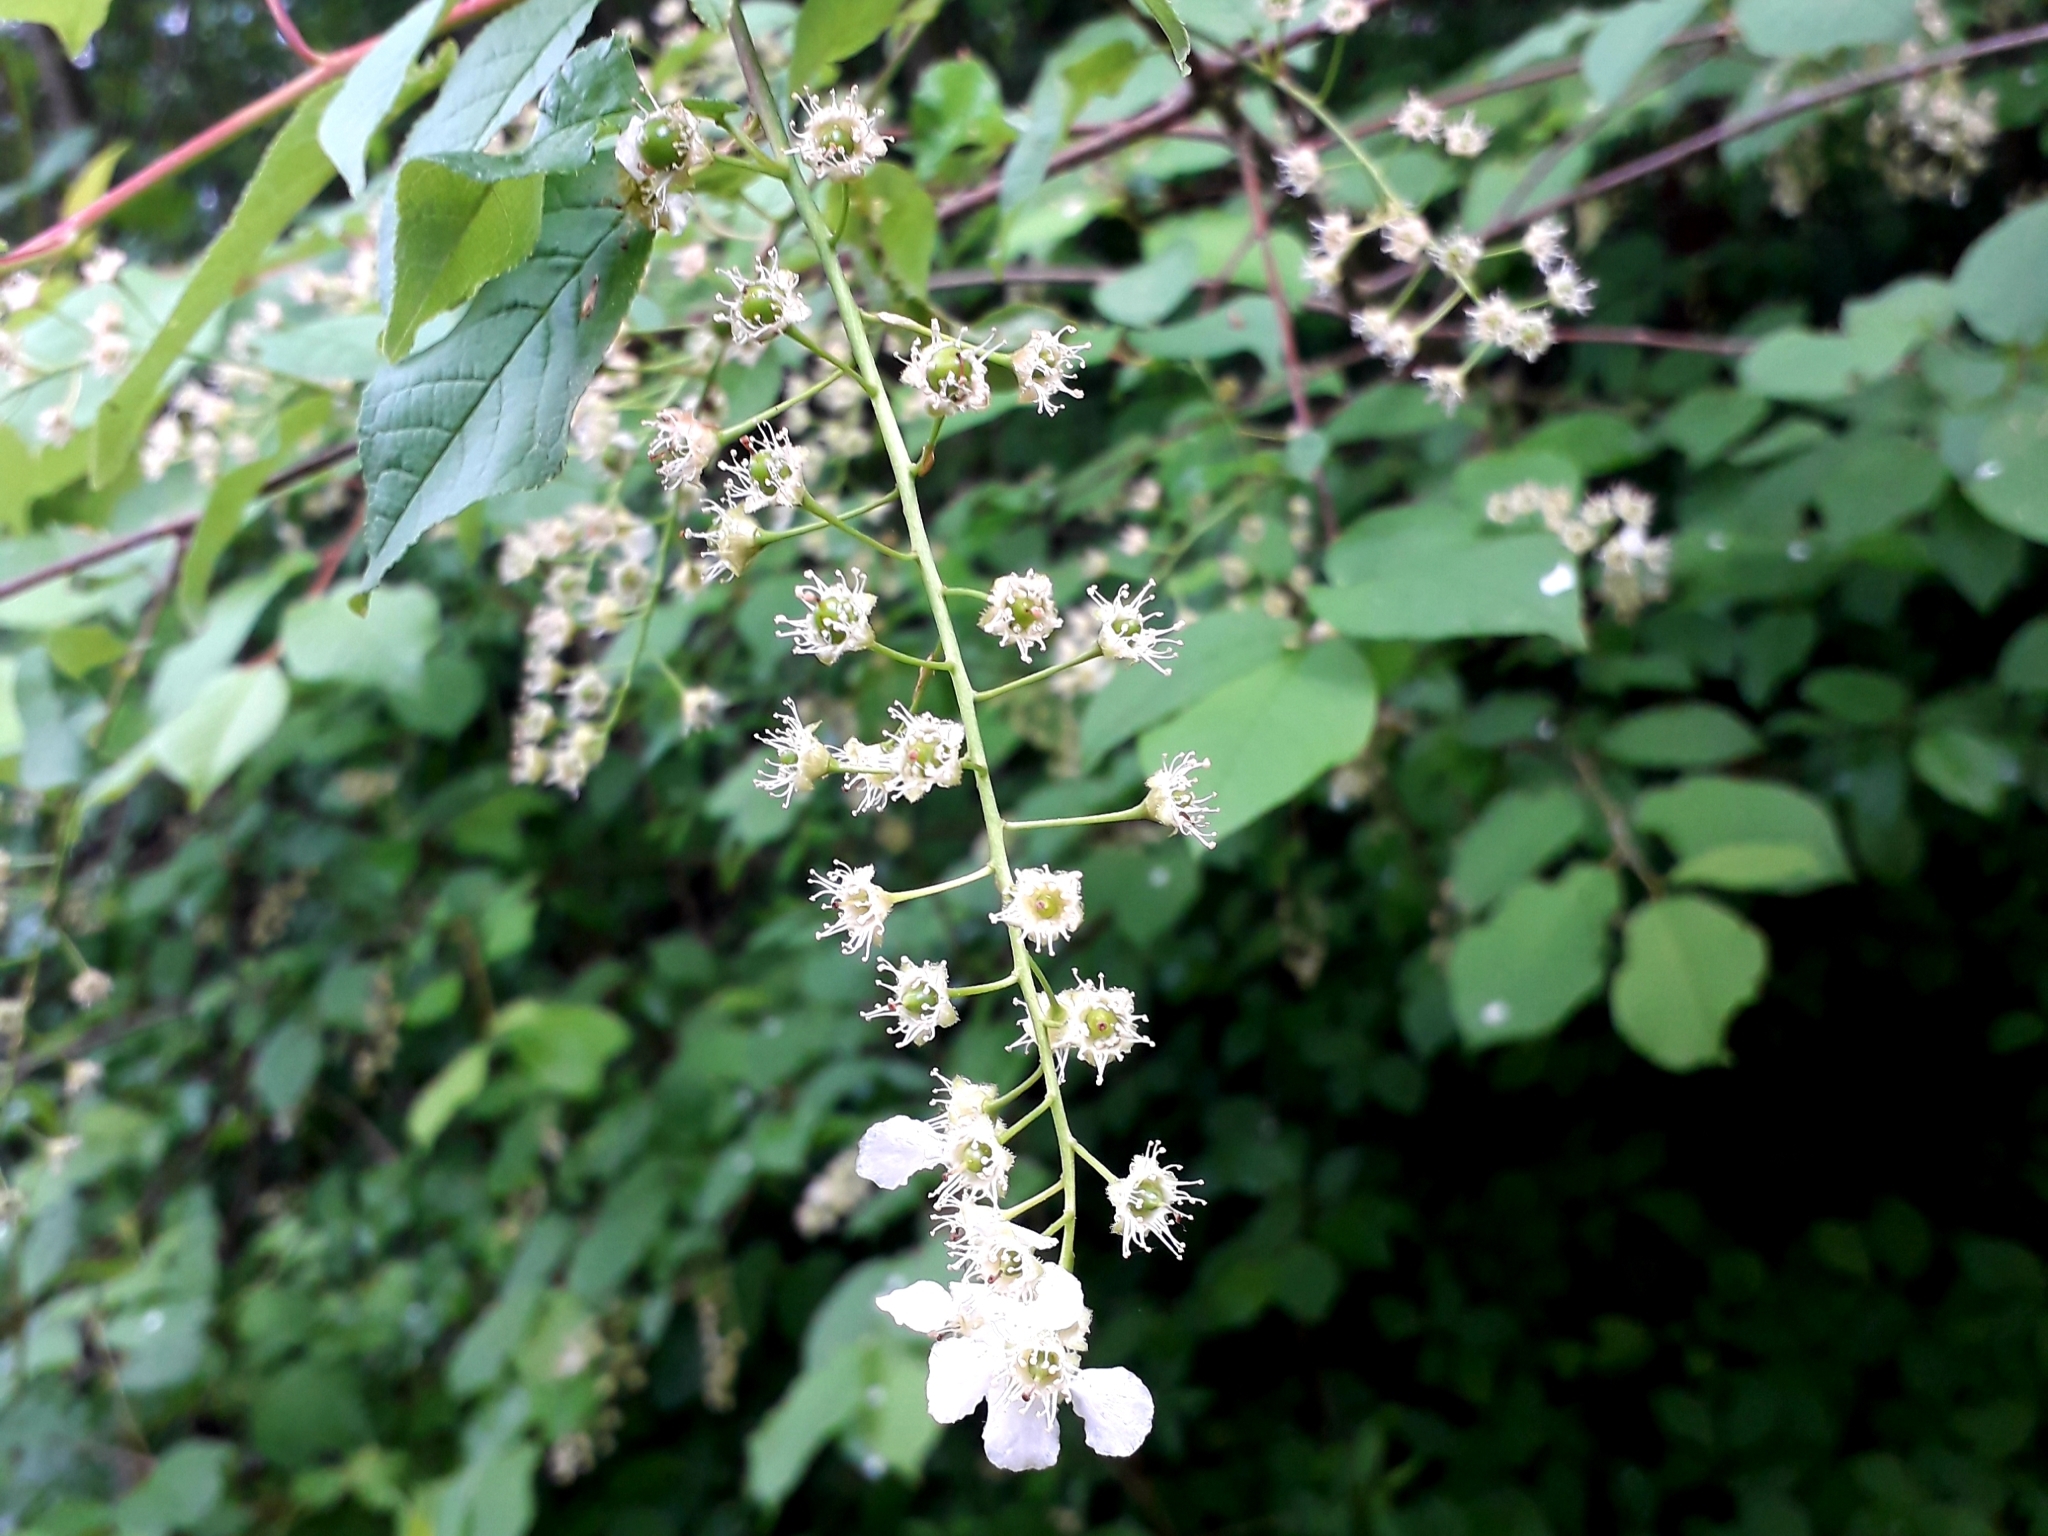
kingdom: Plantae
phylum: Tracheophyta
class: Magnoliopsida
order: Rosales
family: Rosaceae
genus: Prunus
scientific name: Prunus padus
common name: Bird cherry
